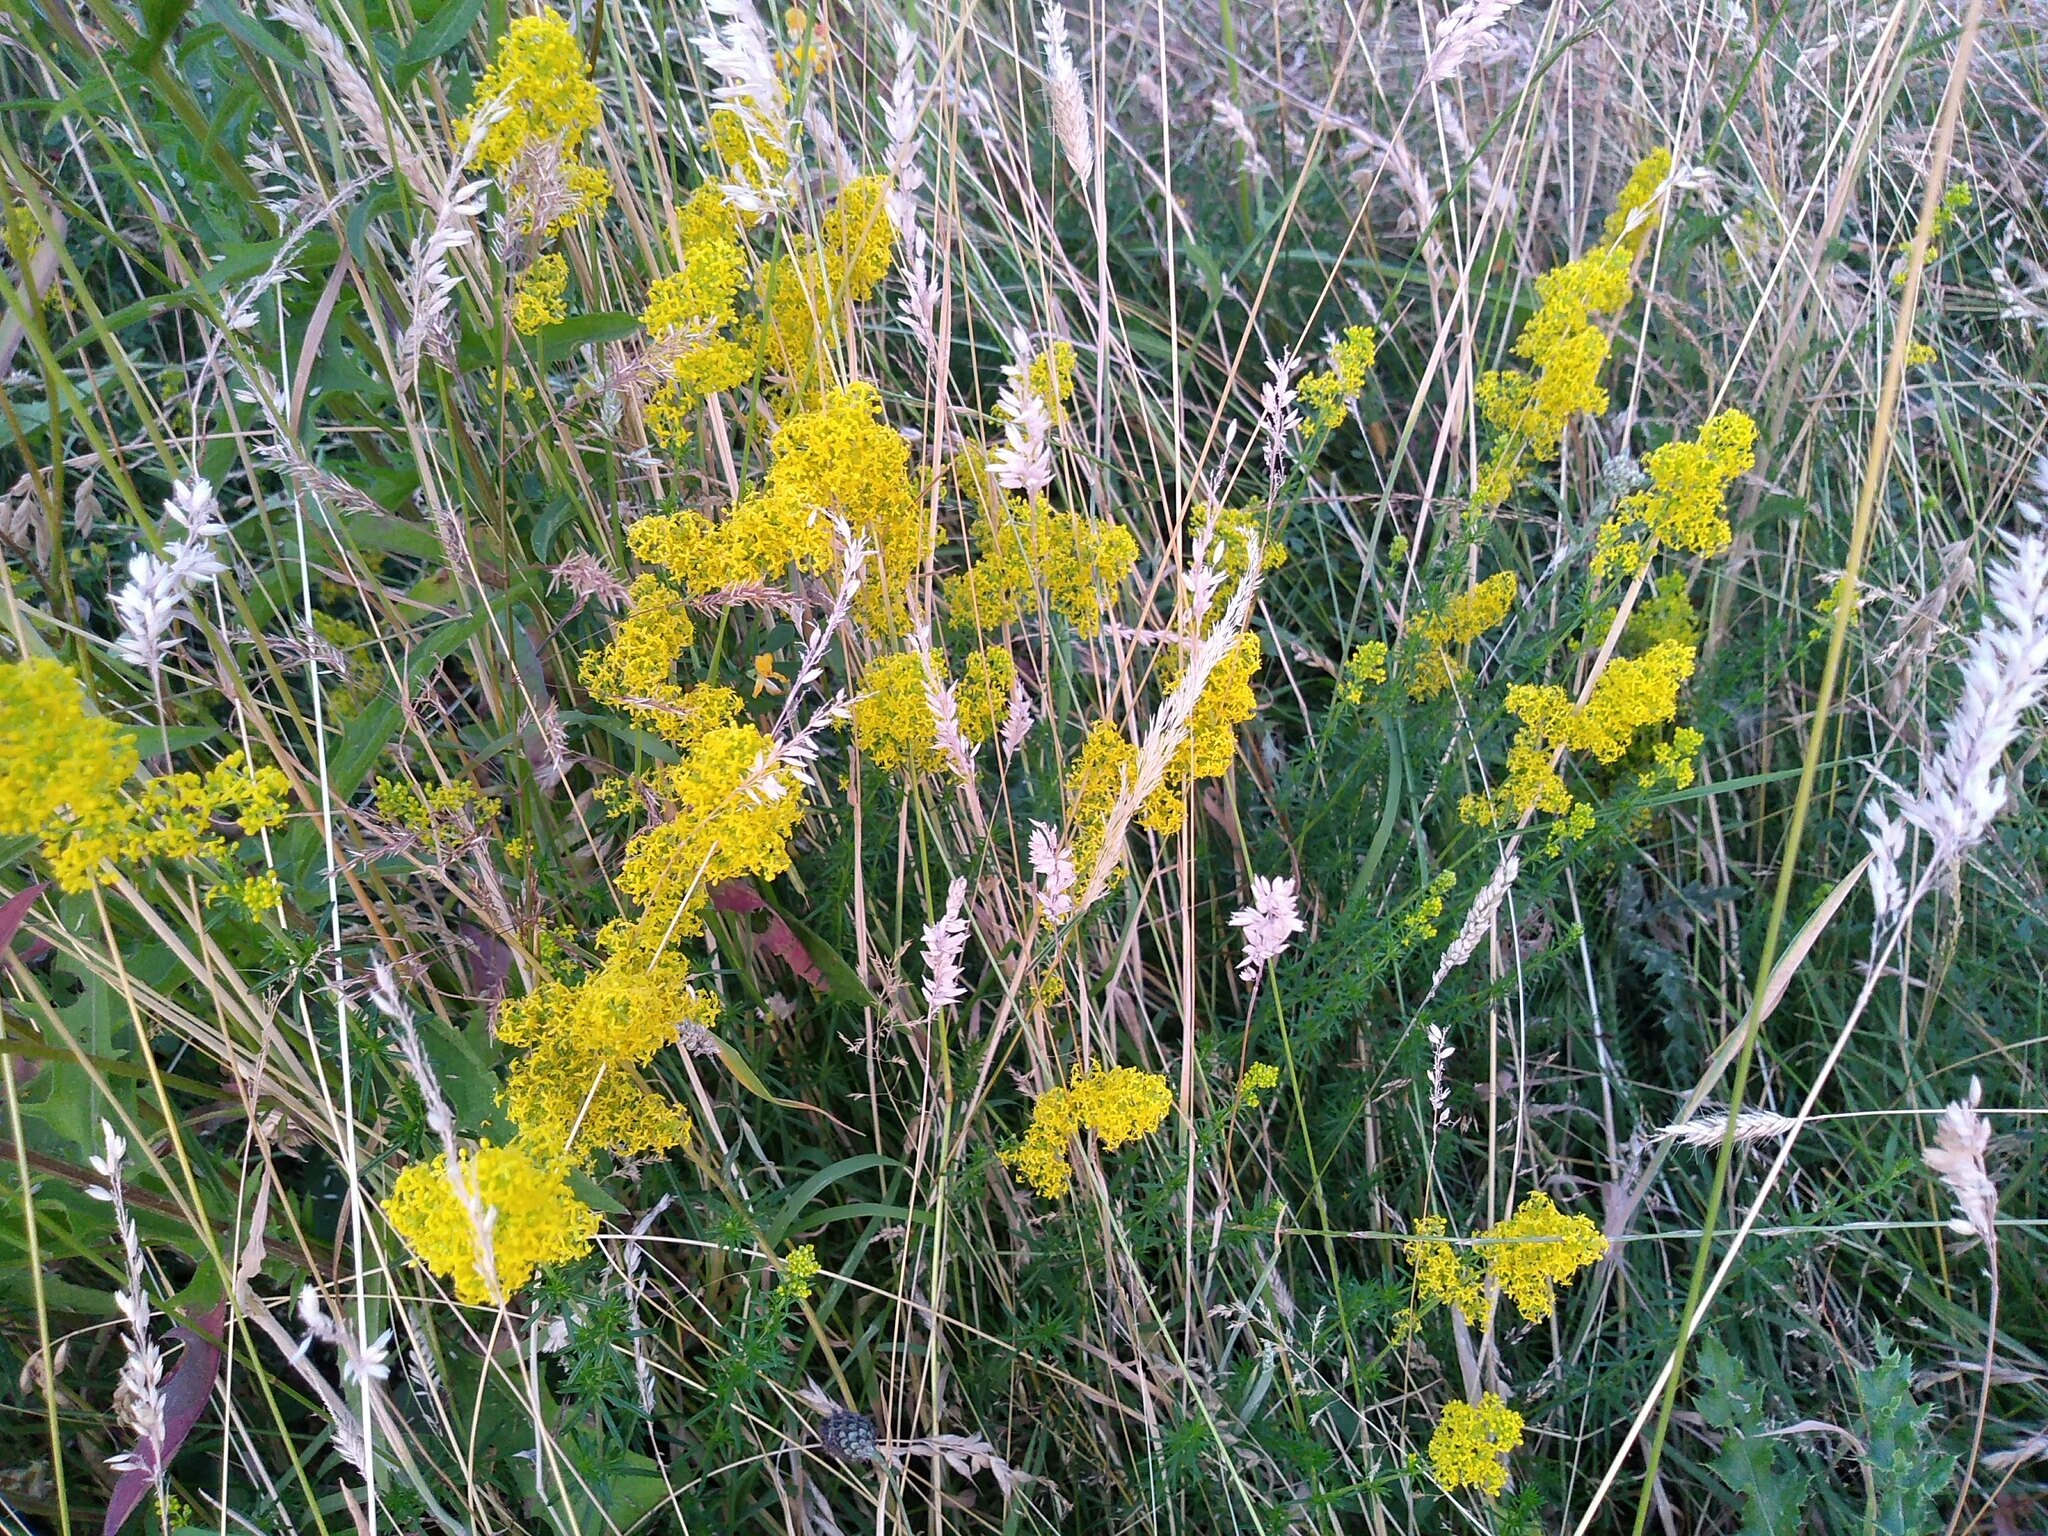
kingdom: Plantae
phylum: Tracheophyta
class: Magnoliopsida
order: Gentianales
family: Rubiaceae
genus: Galium
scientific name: Galium verum
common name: Lady's bedstraw
